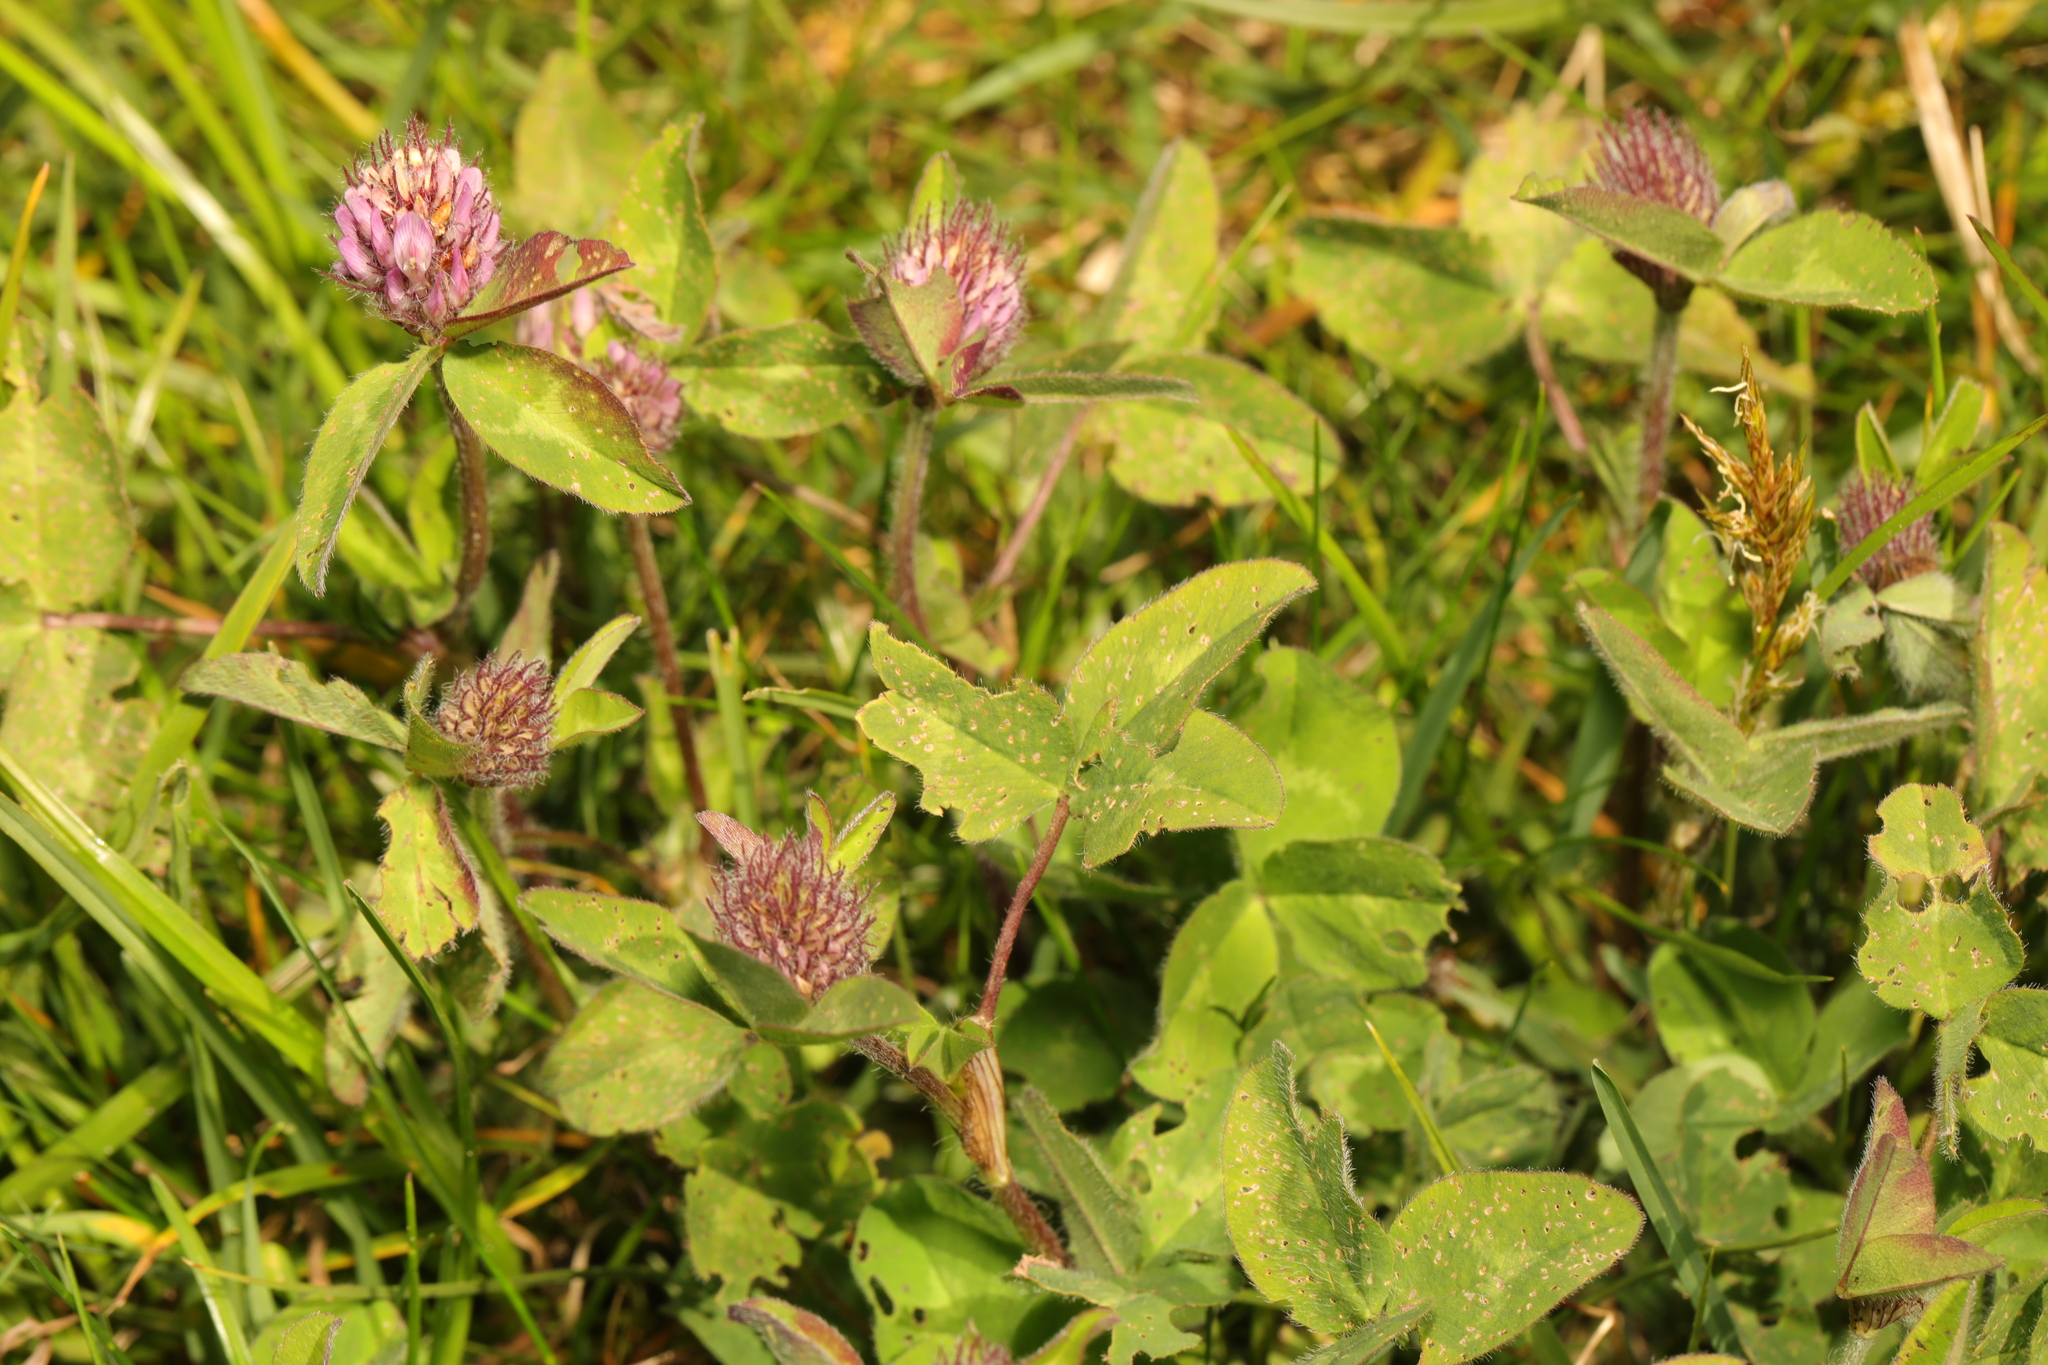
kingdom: Plantae
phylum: Tracheophyta
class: Magnoliopsida
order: Fabales
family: Fabaceae
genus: Trifolium
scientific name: Trifolium pratense
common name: Red clover
